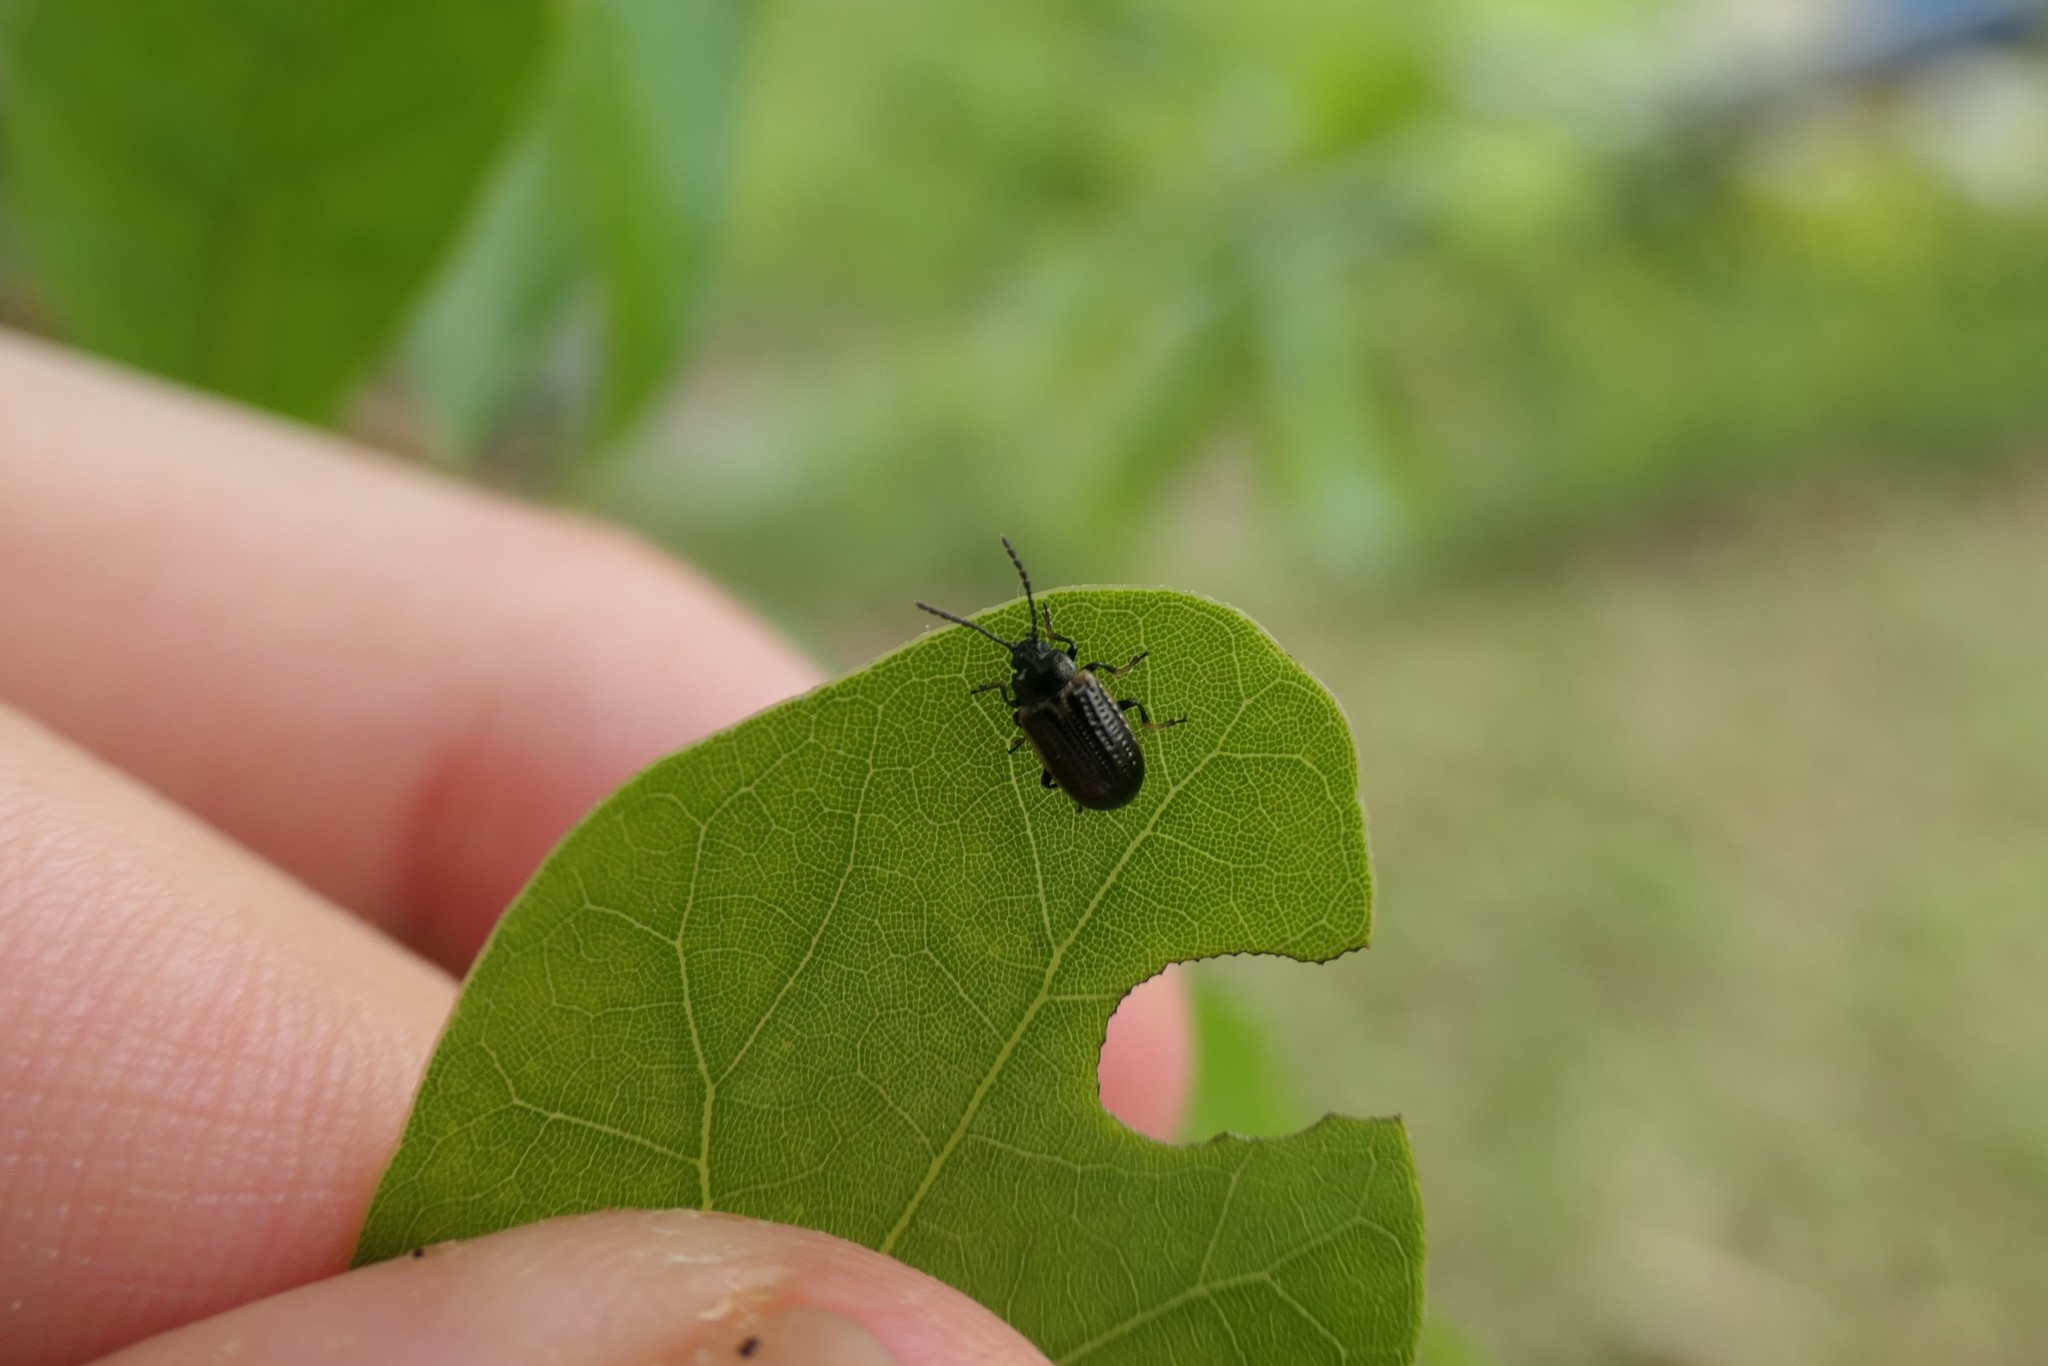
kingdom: Animalia
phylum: Arthropoda
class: Insecta
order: Coleoptera
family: Chrysomelidae
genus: Microtheca
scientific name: Microtheca ochroloma
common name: Leaf beetle
